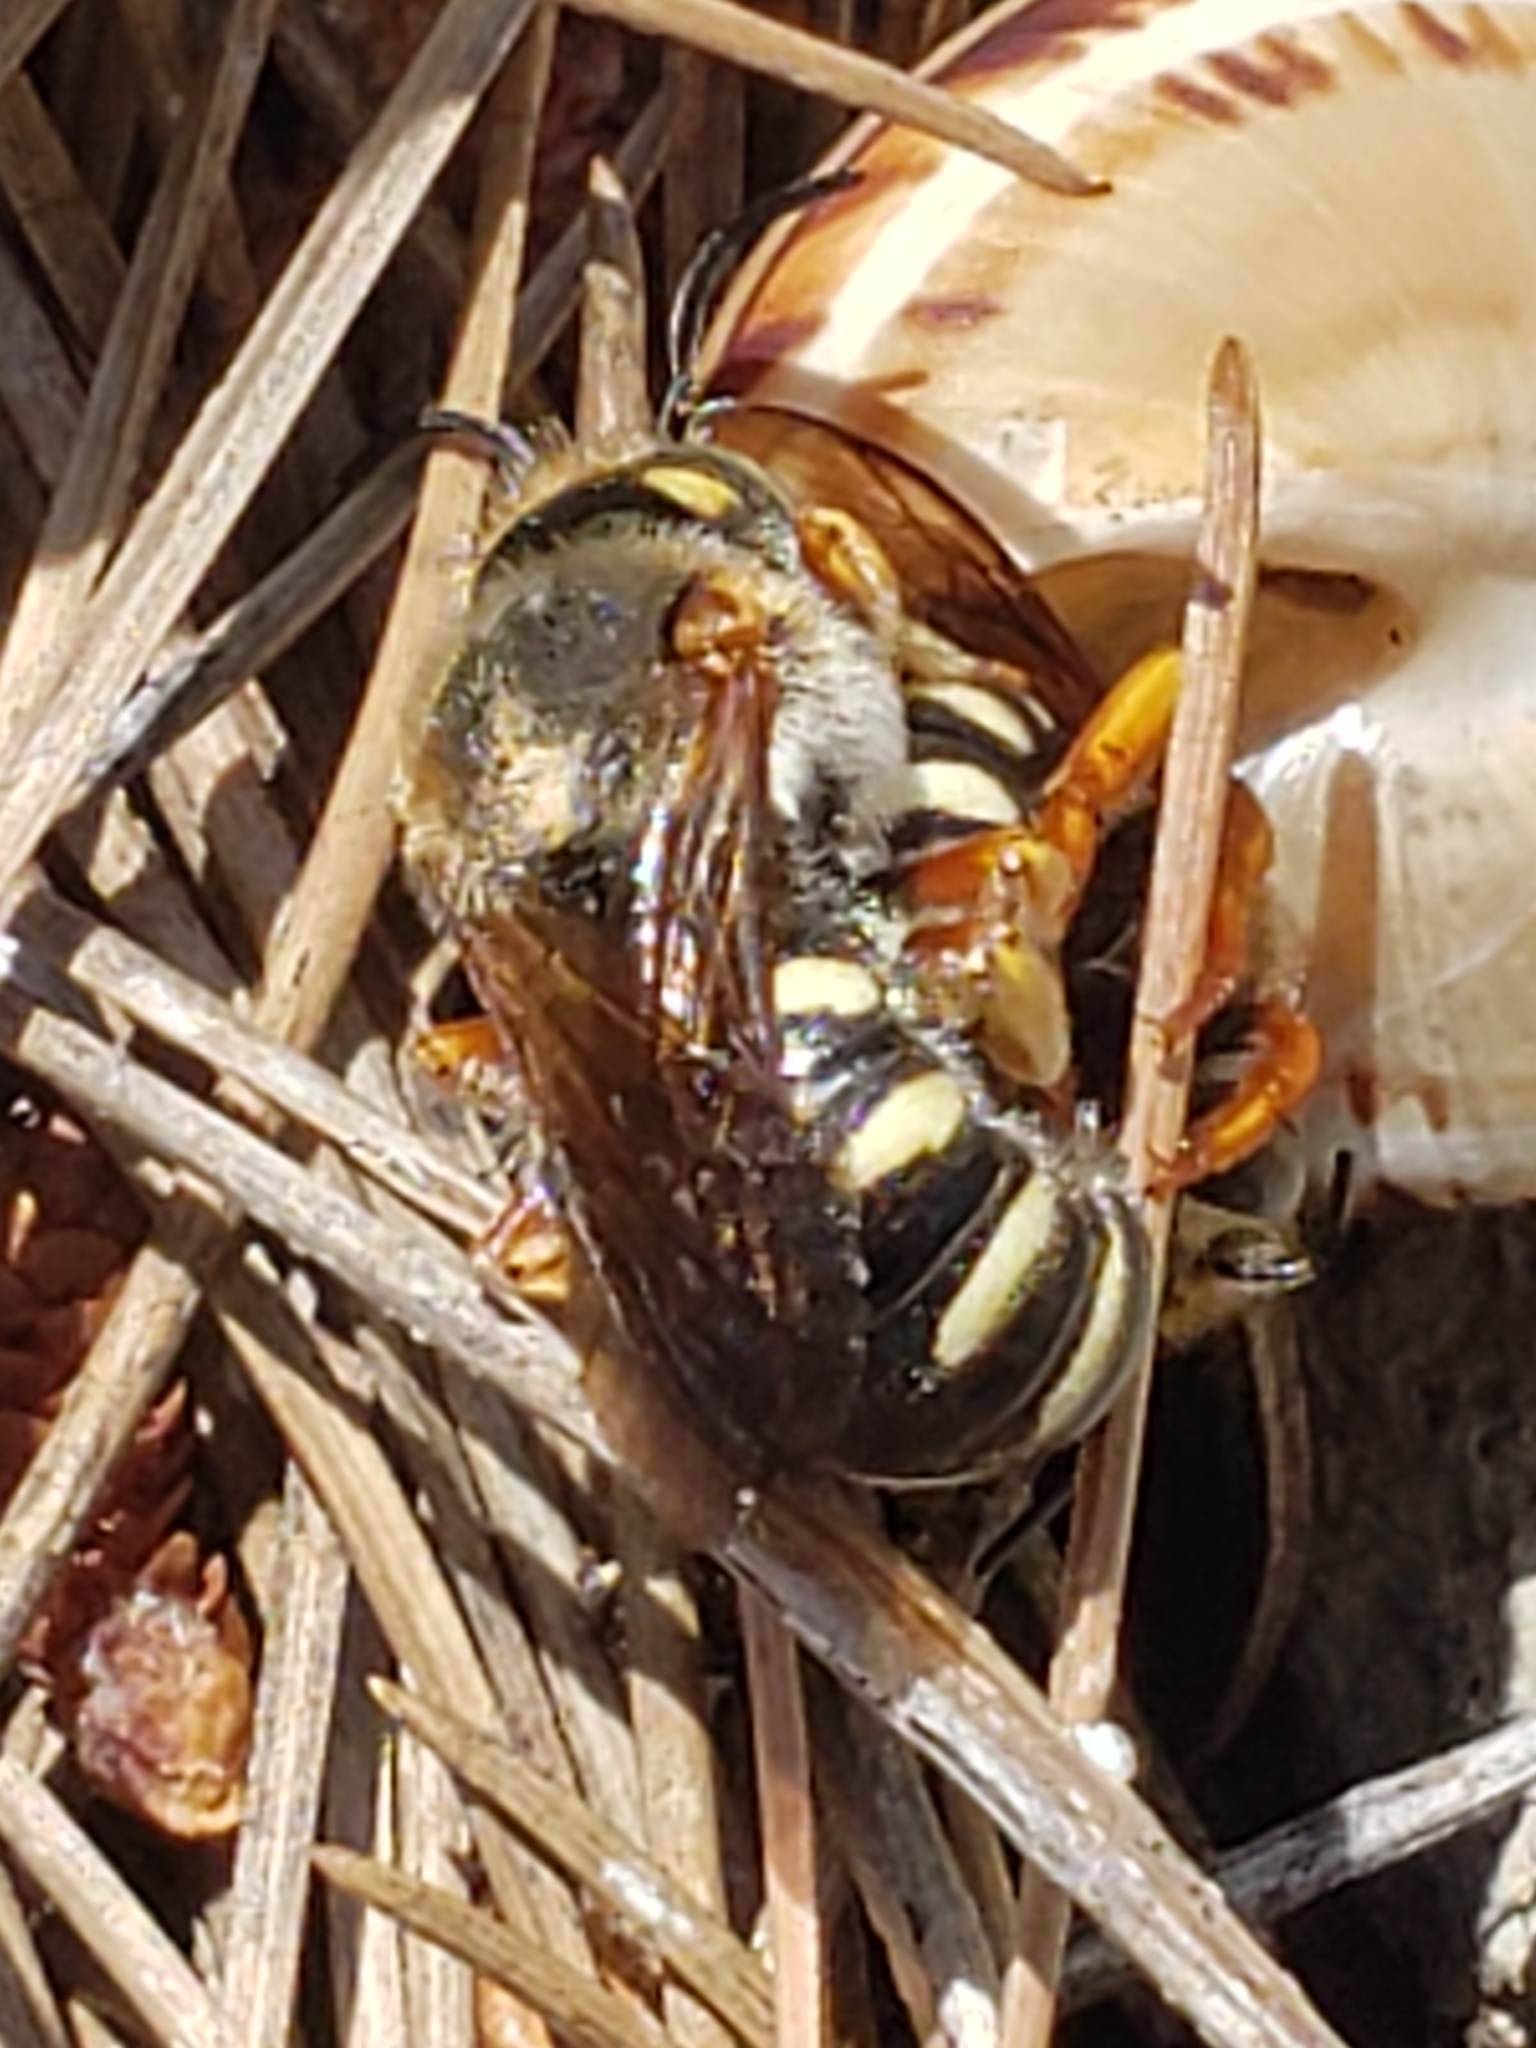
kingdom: Animalia
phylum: Arthropoda
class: Insecta
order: Hymenoptera
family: Megachilidae
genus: Rhodanthidium
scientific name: Rhodanthidium septemdentatum
